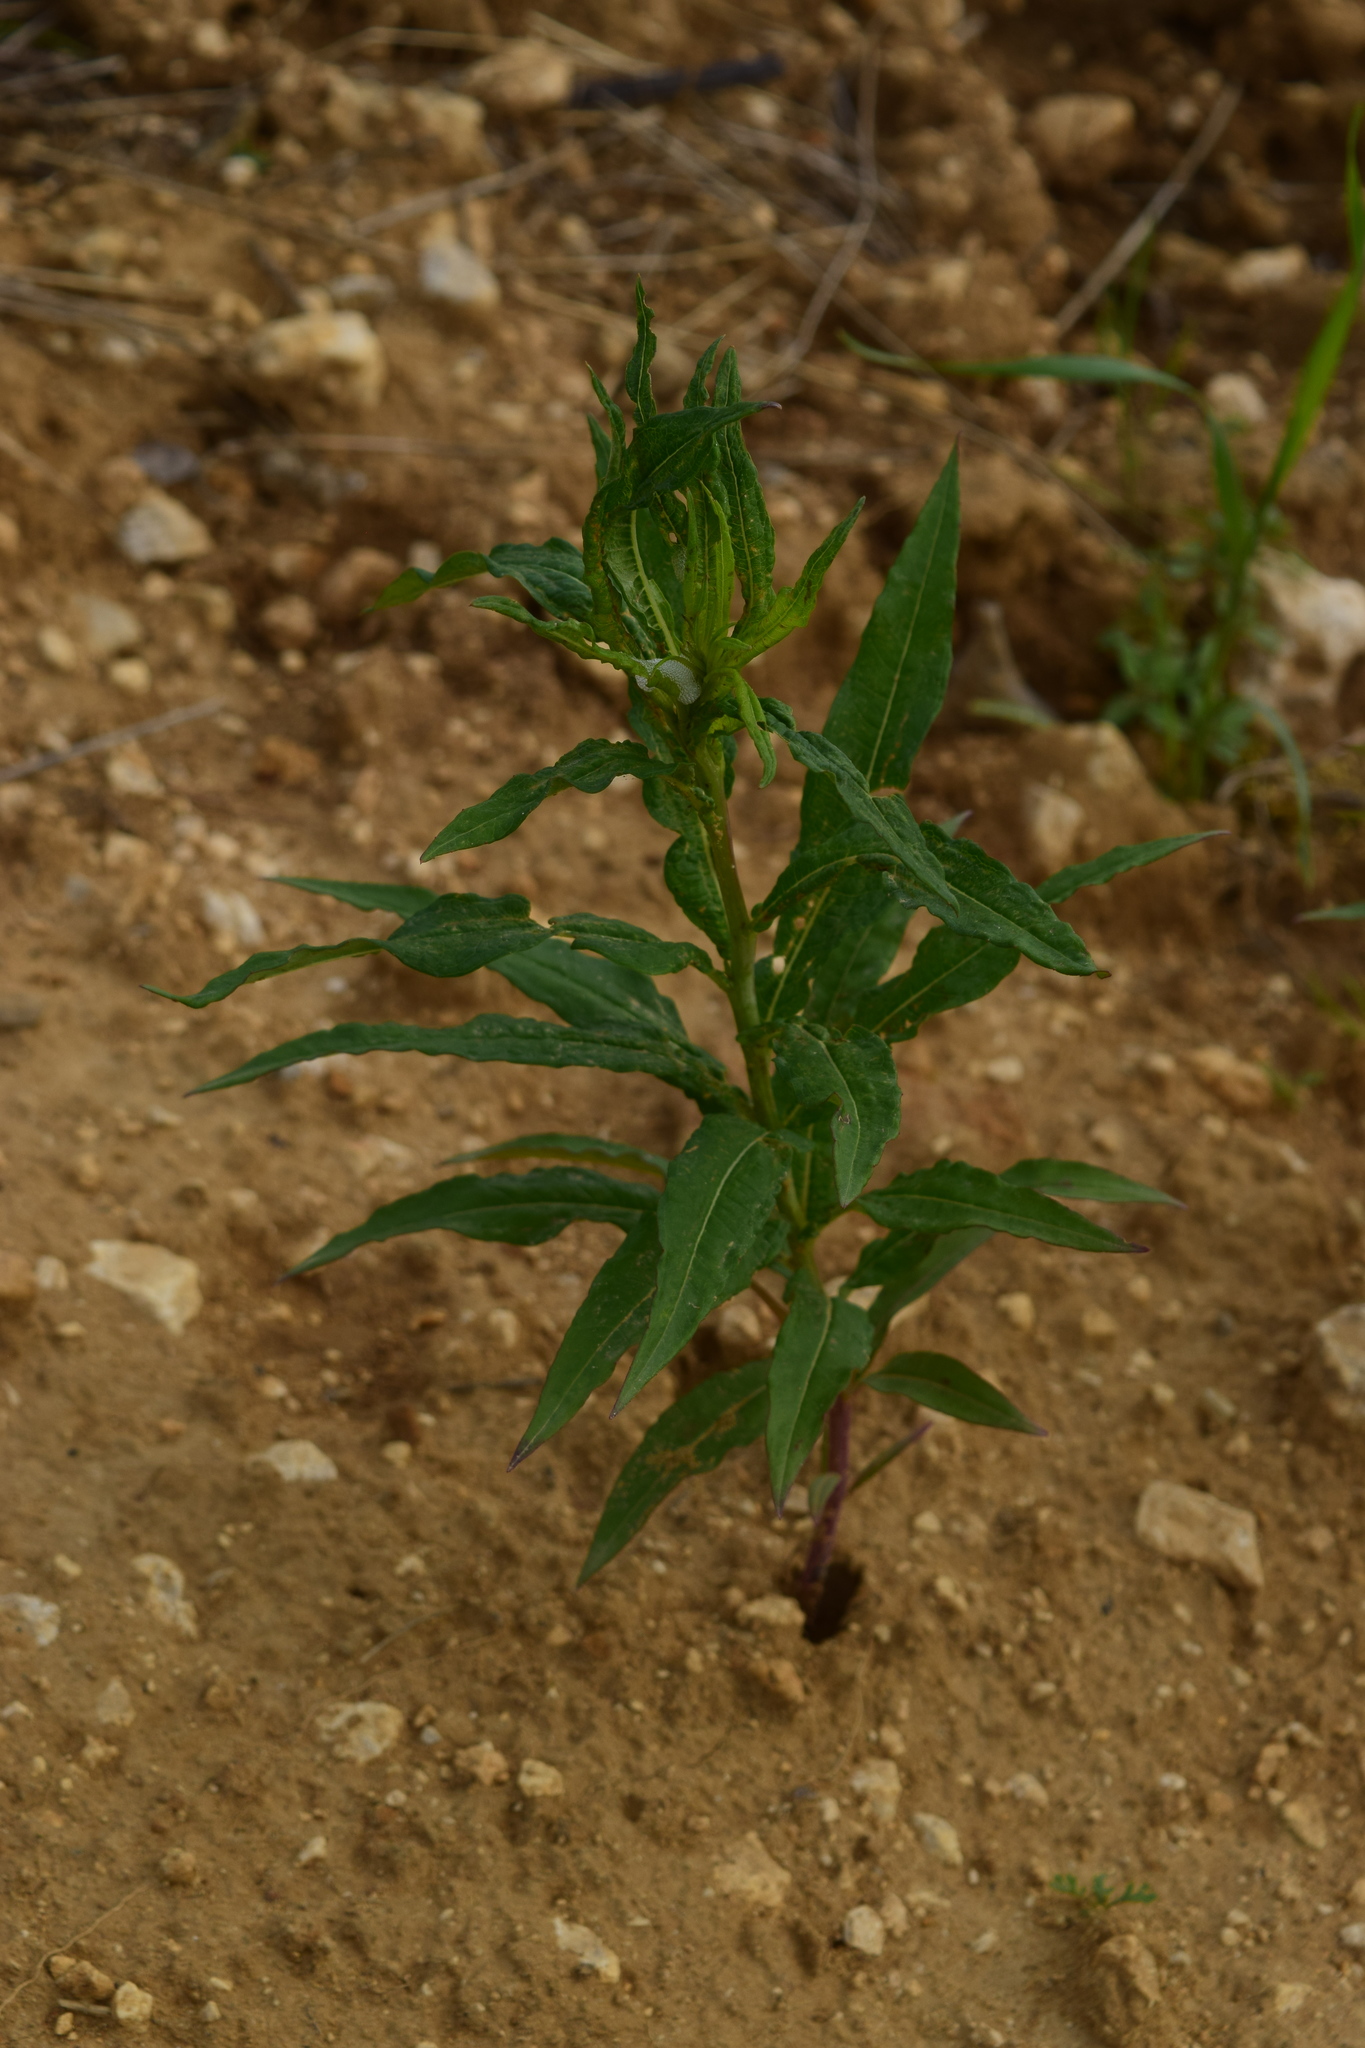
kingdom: Plantae
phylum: Tracheophyta
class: Magnoliopsida
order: Myrtales
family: Onagraceae
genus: Chamaenerion
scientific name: Chamaenerion angustifolium
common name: Fireweed
